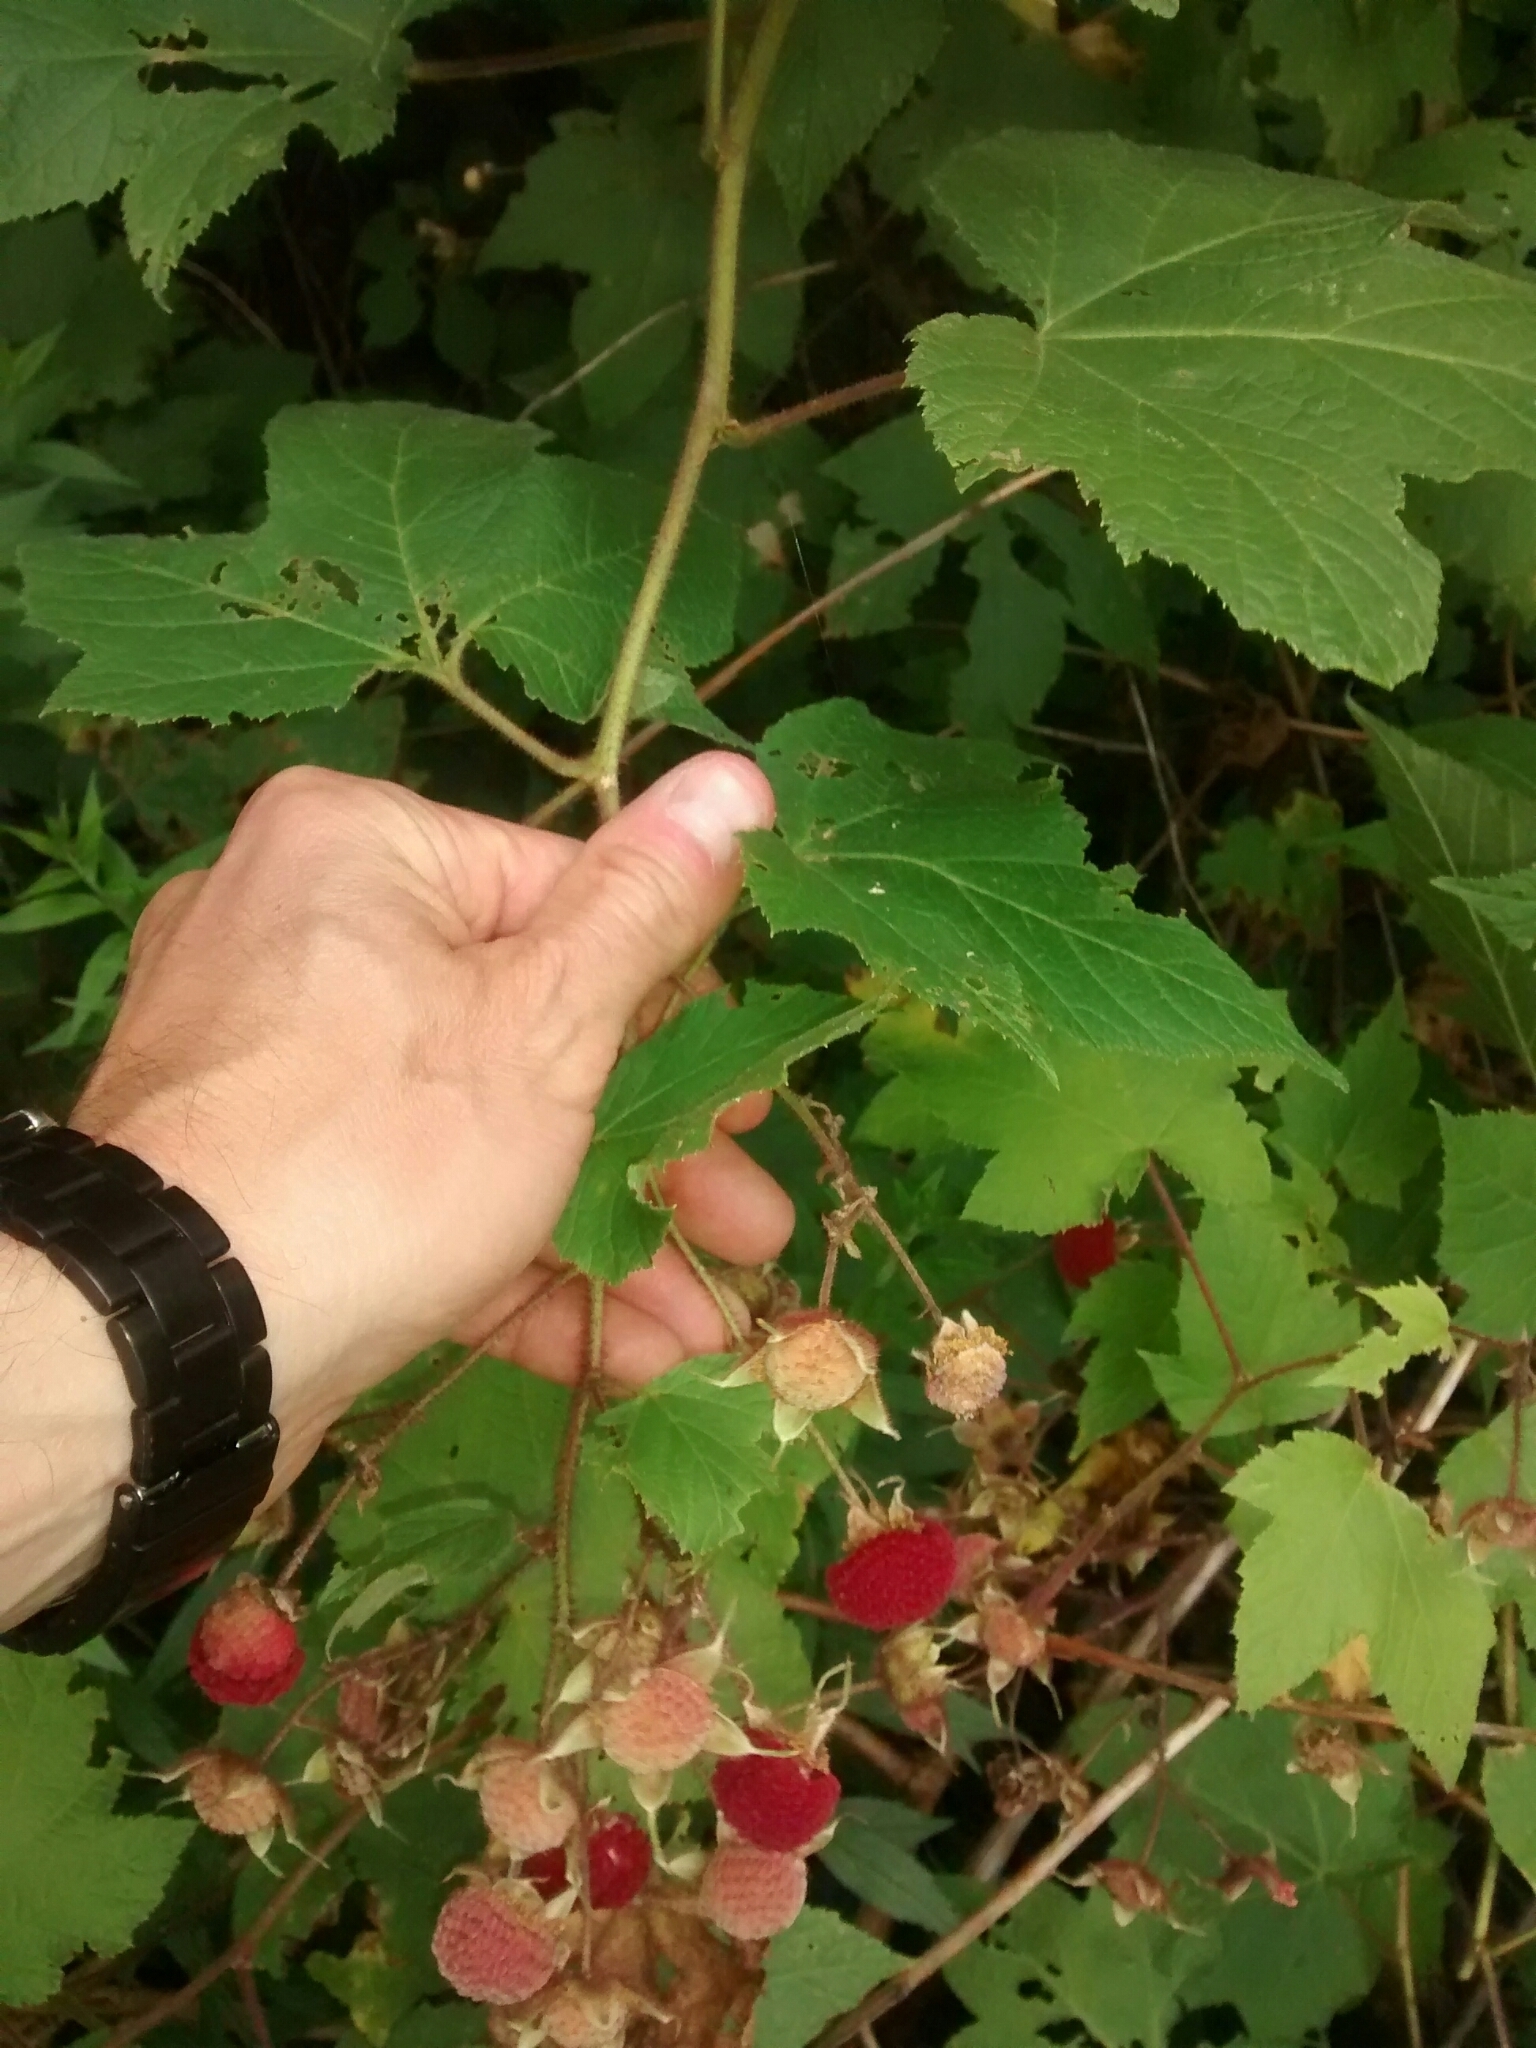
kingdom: Plantae
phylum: Tracheophyta
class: Magnoliopsida
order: Rosales
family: Rosaceae
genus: Rubus
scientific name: Rubus odoratus
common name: Purple-flowered raspberry
